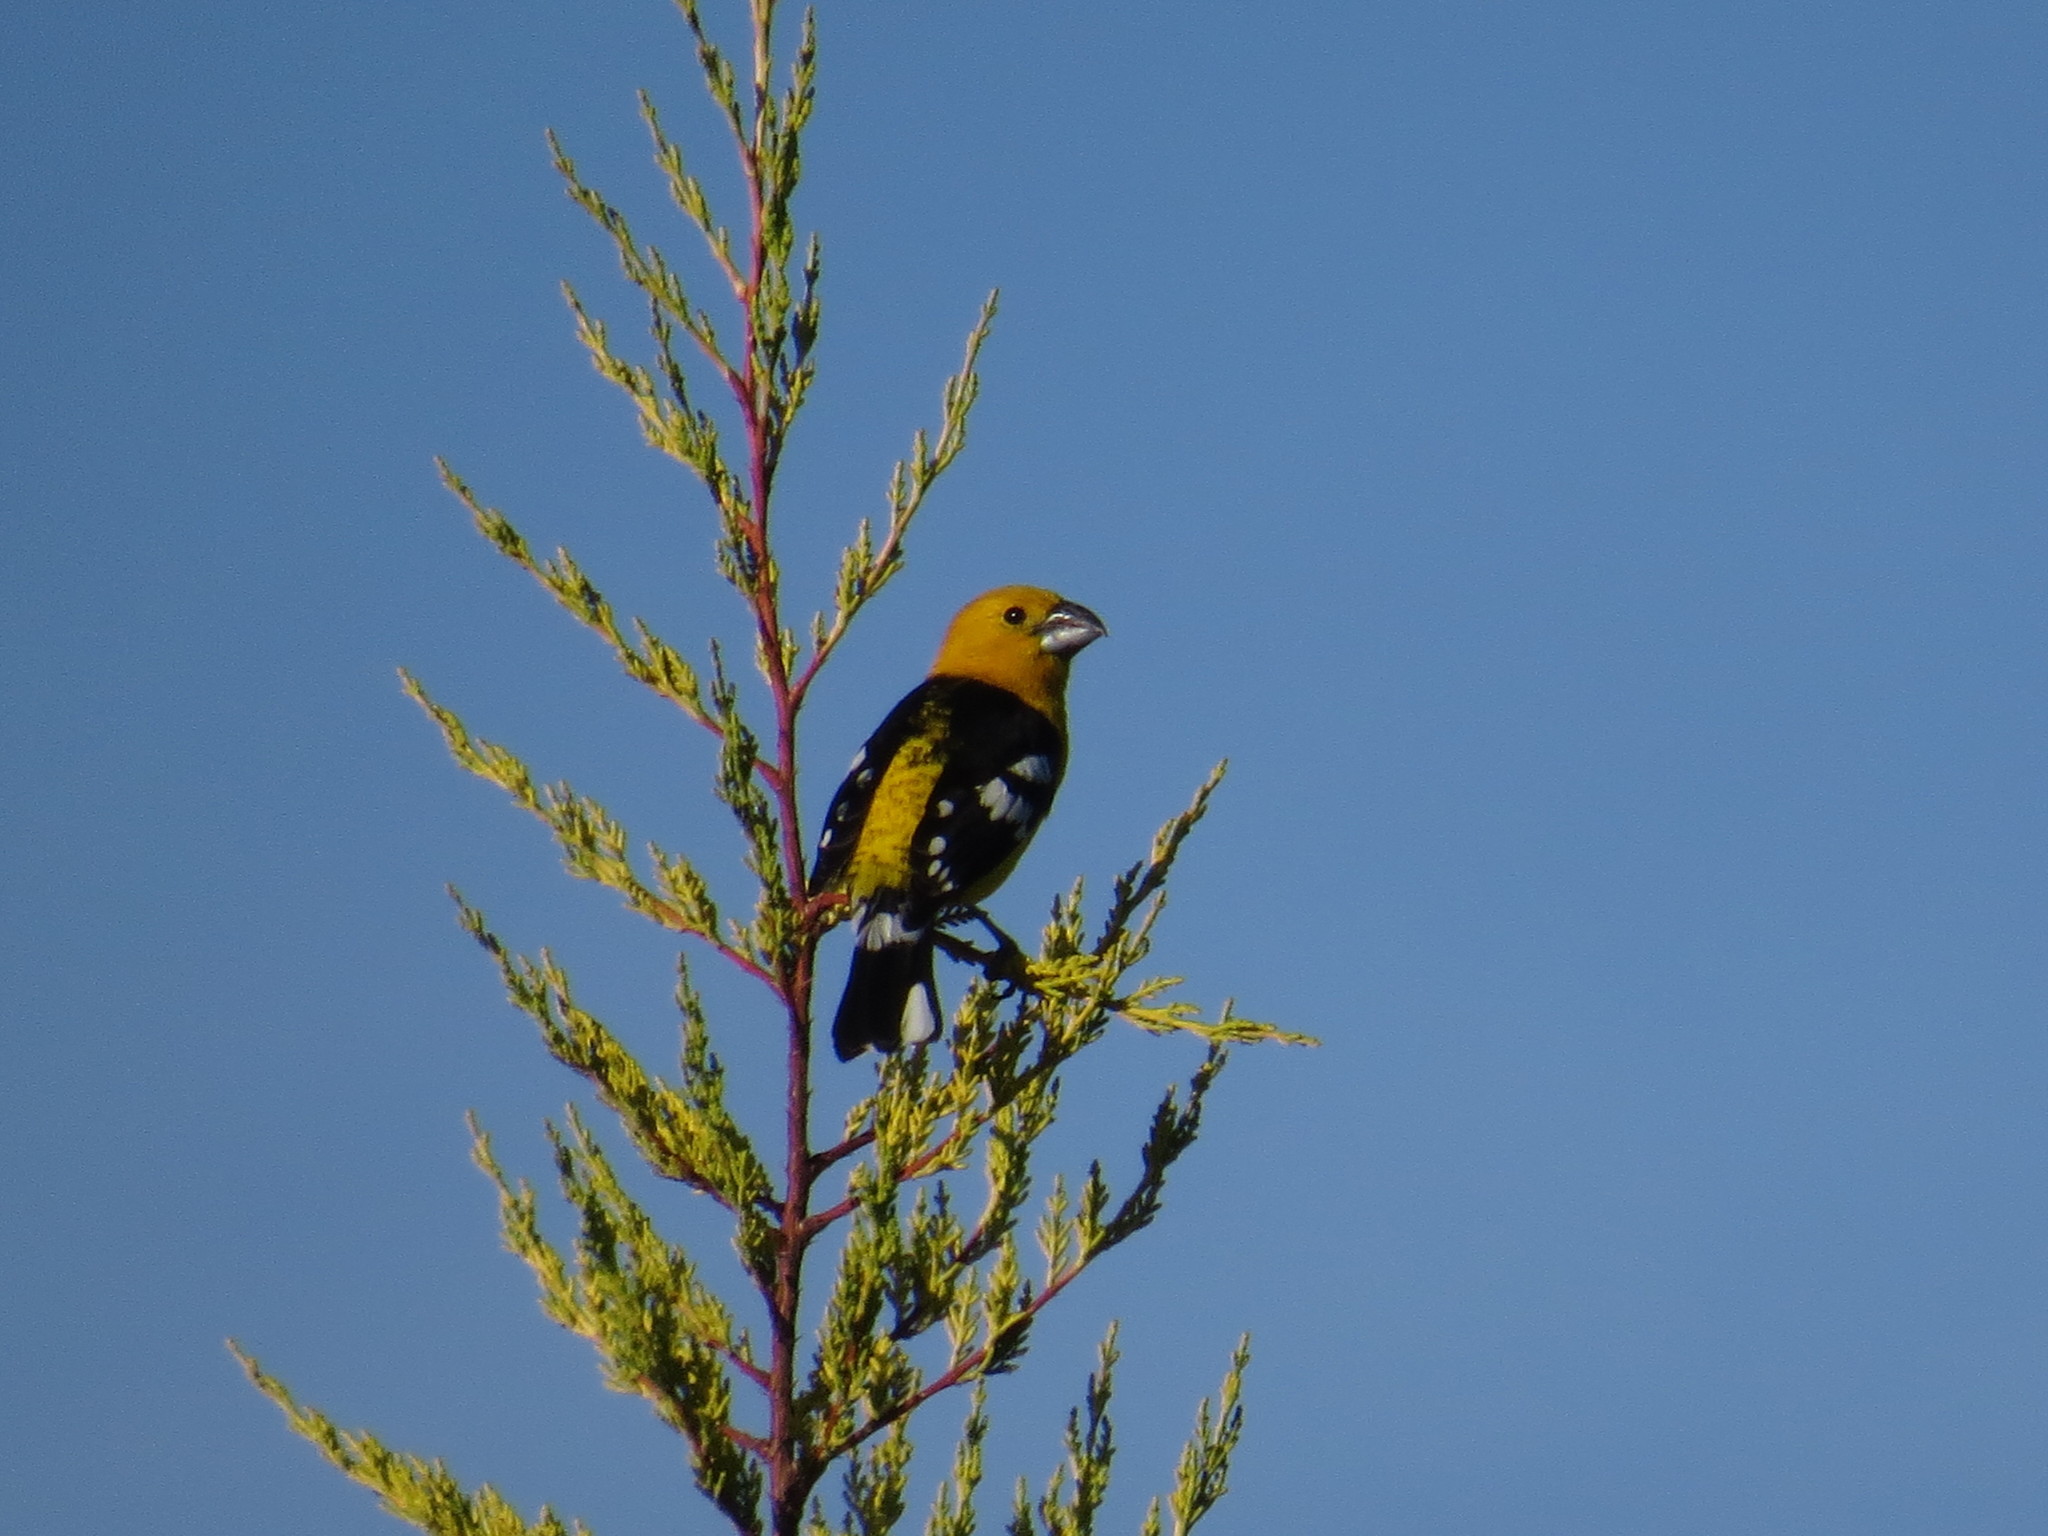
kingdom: Animalia
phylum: Chordata
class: Aves
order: Passeriformes
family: Cardinalidae
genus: Pheucticus
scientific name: Pheucticus chrysogaster
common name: Golden grosbeak
